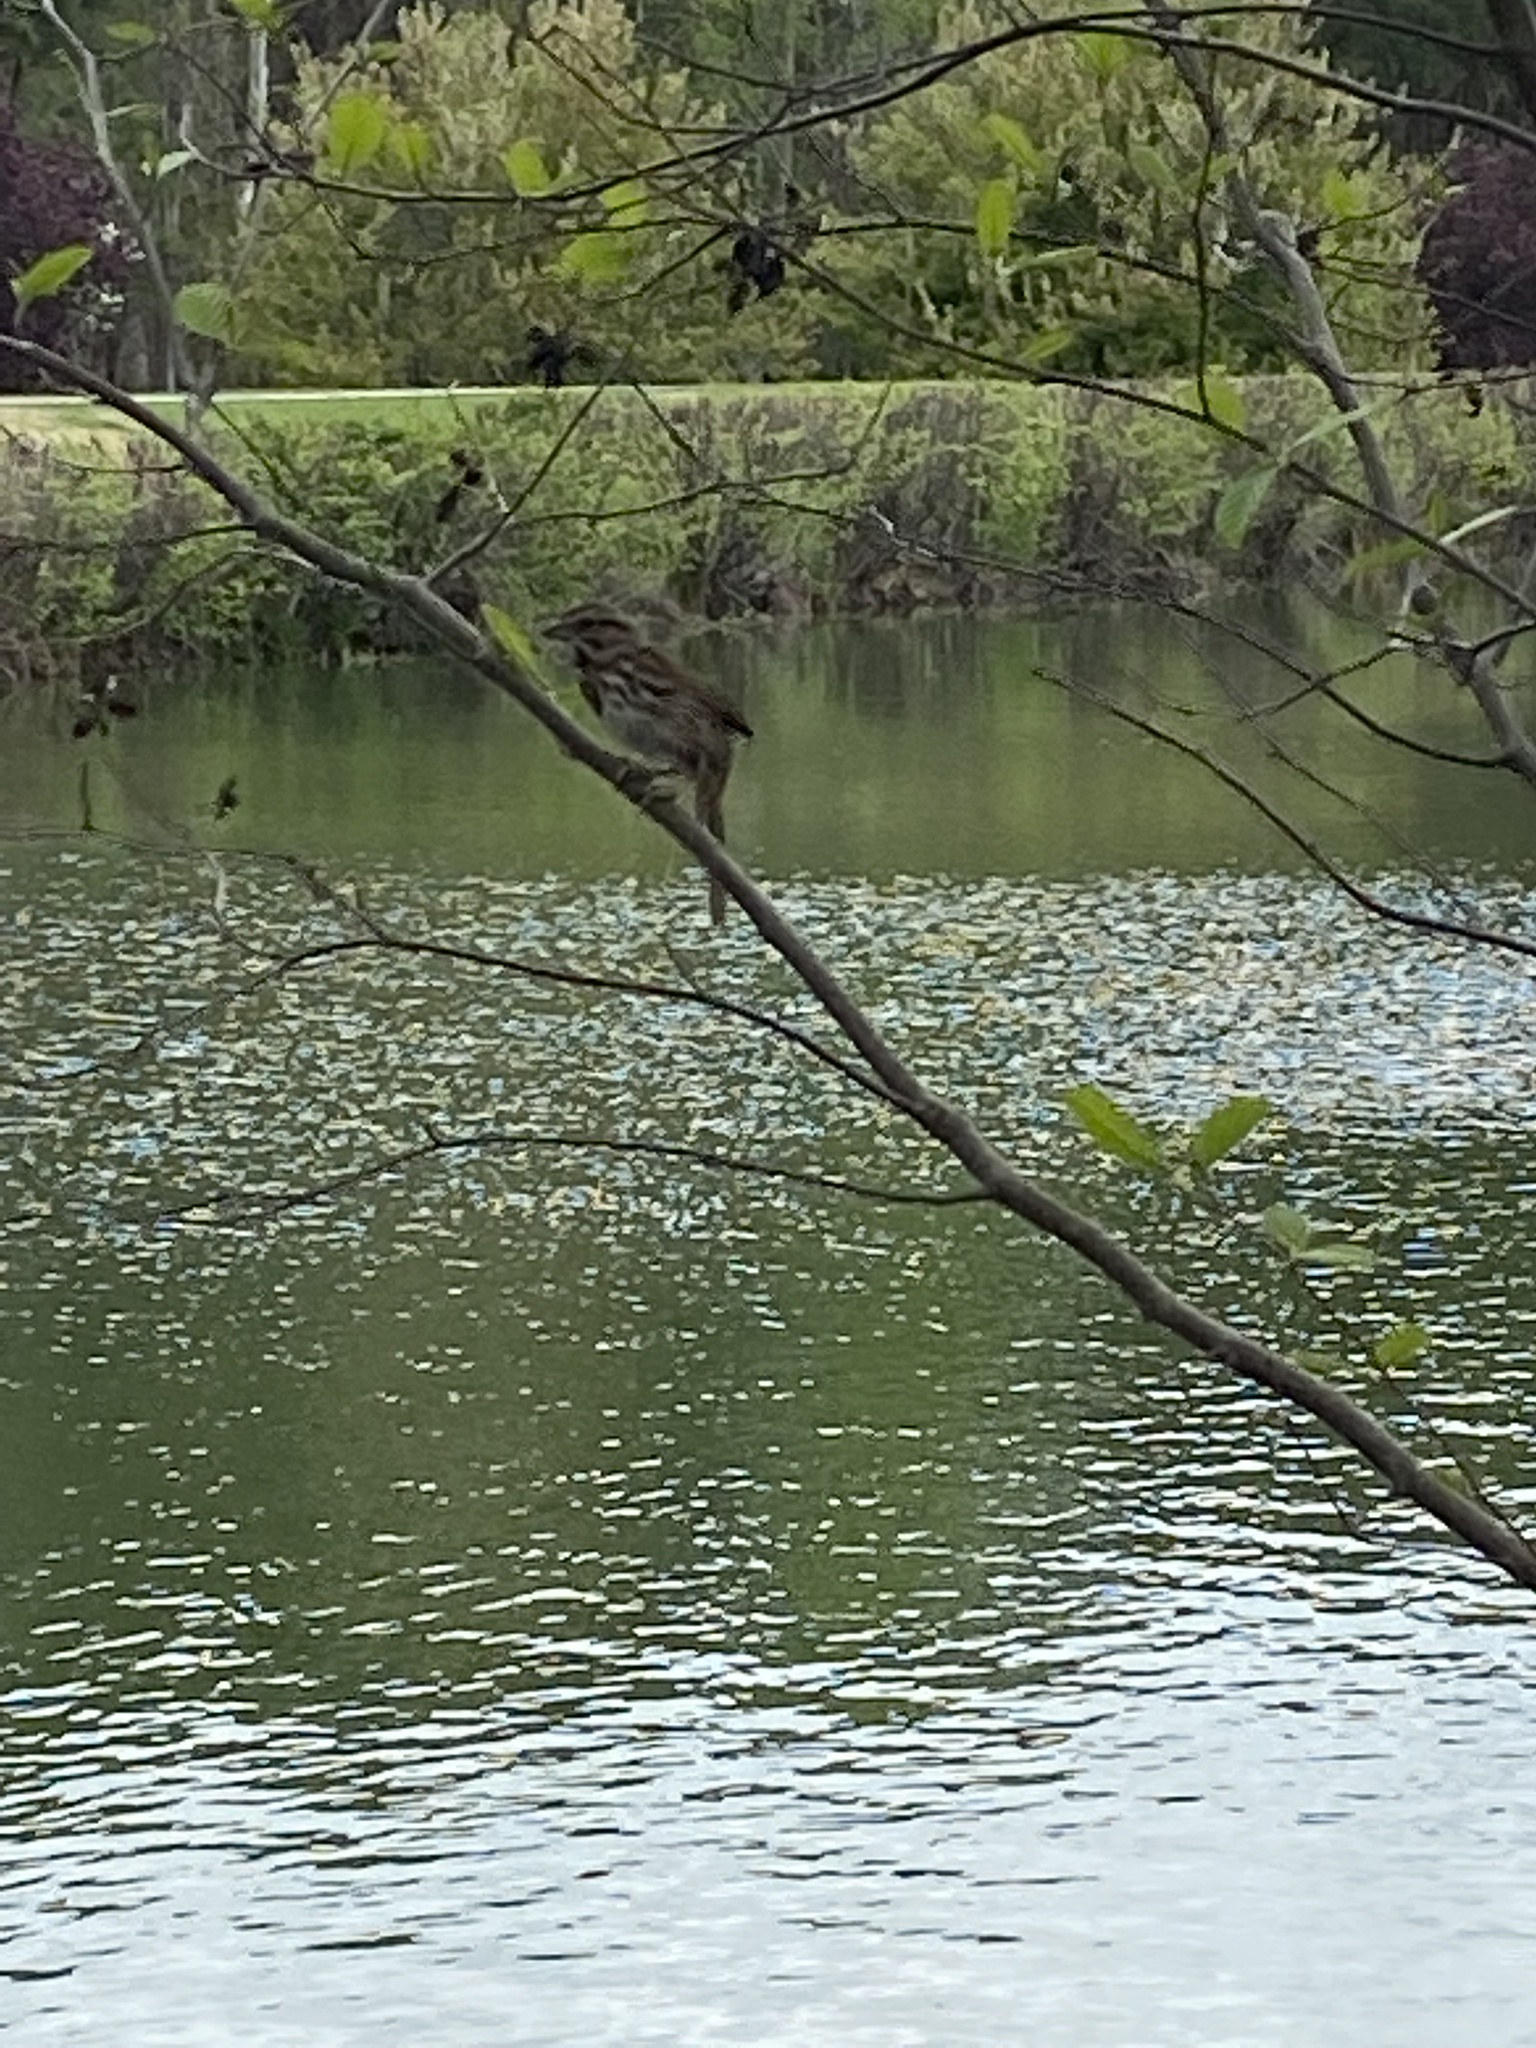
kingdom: Animalia
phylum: Chordata
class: Aves
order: Passeriformes
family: Passerellidae
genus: Melospiza
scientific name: Melospiza melodia
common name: Song sparrow
